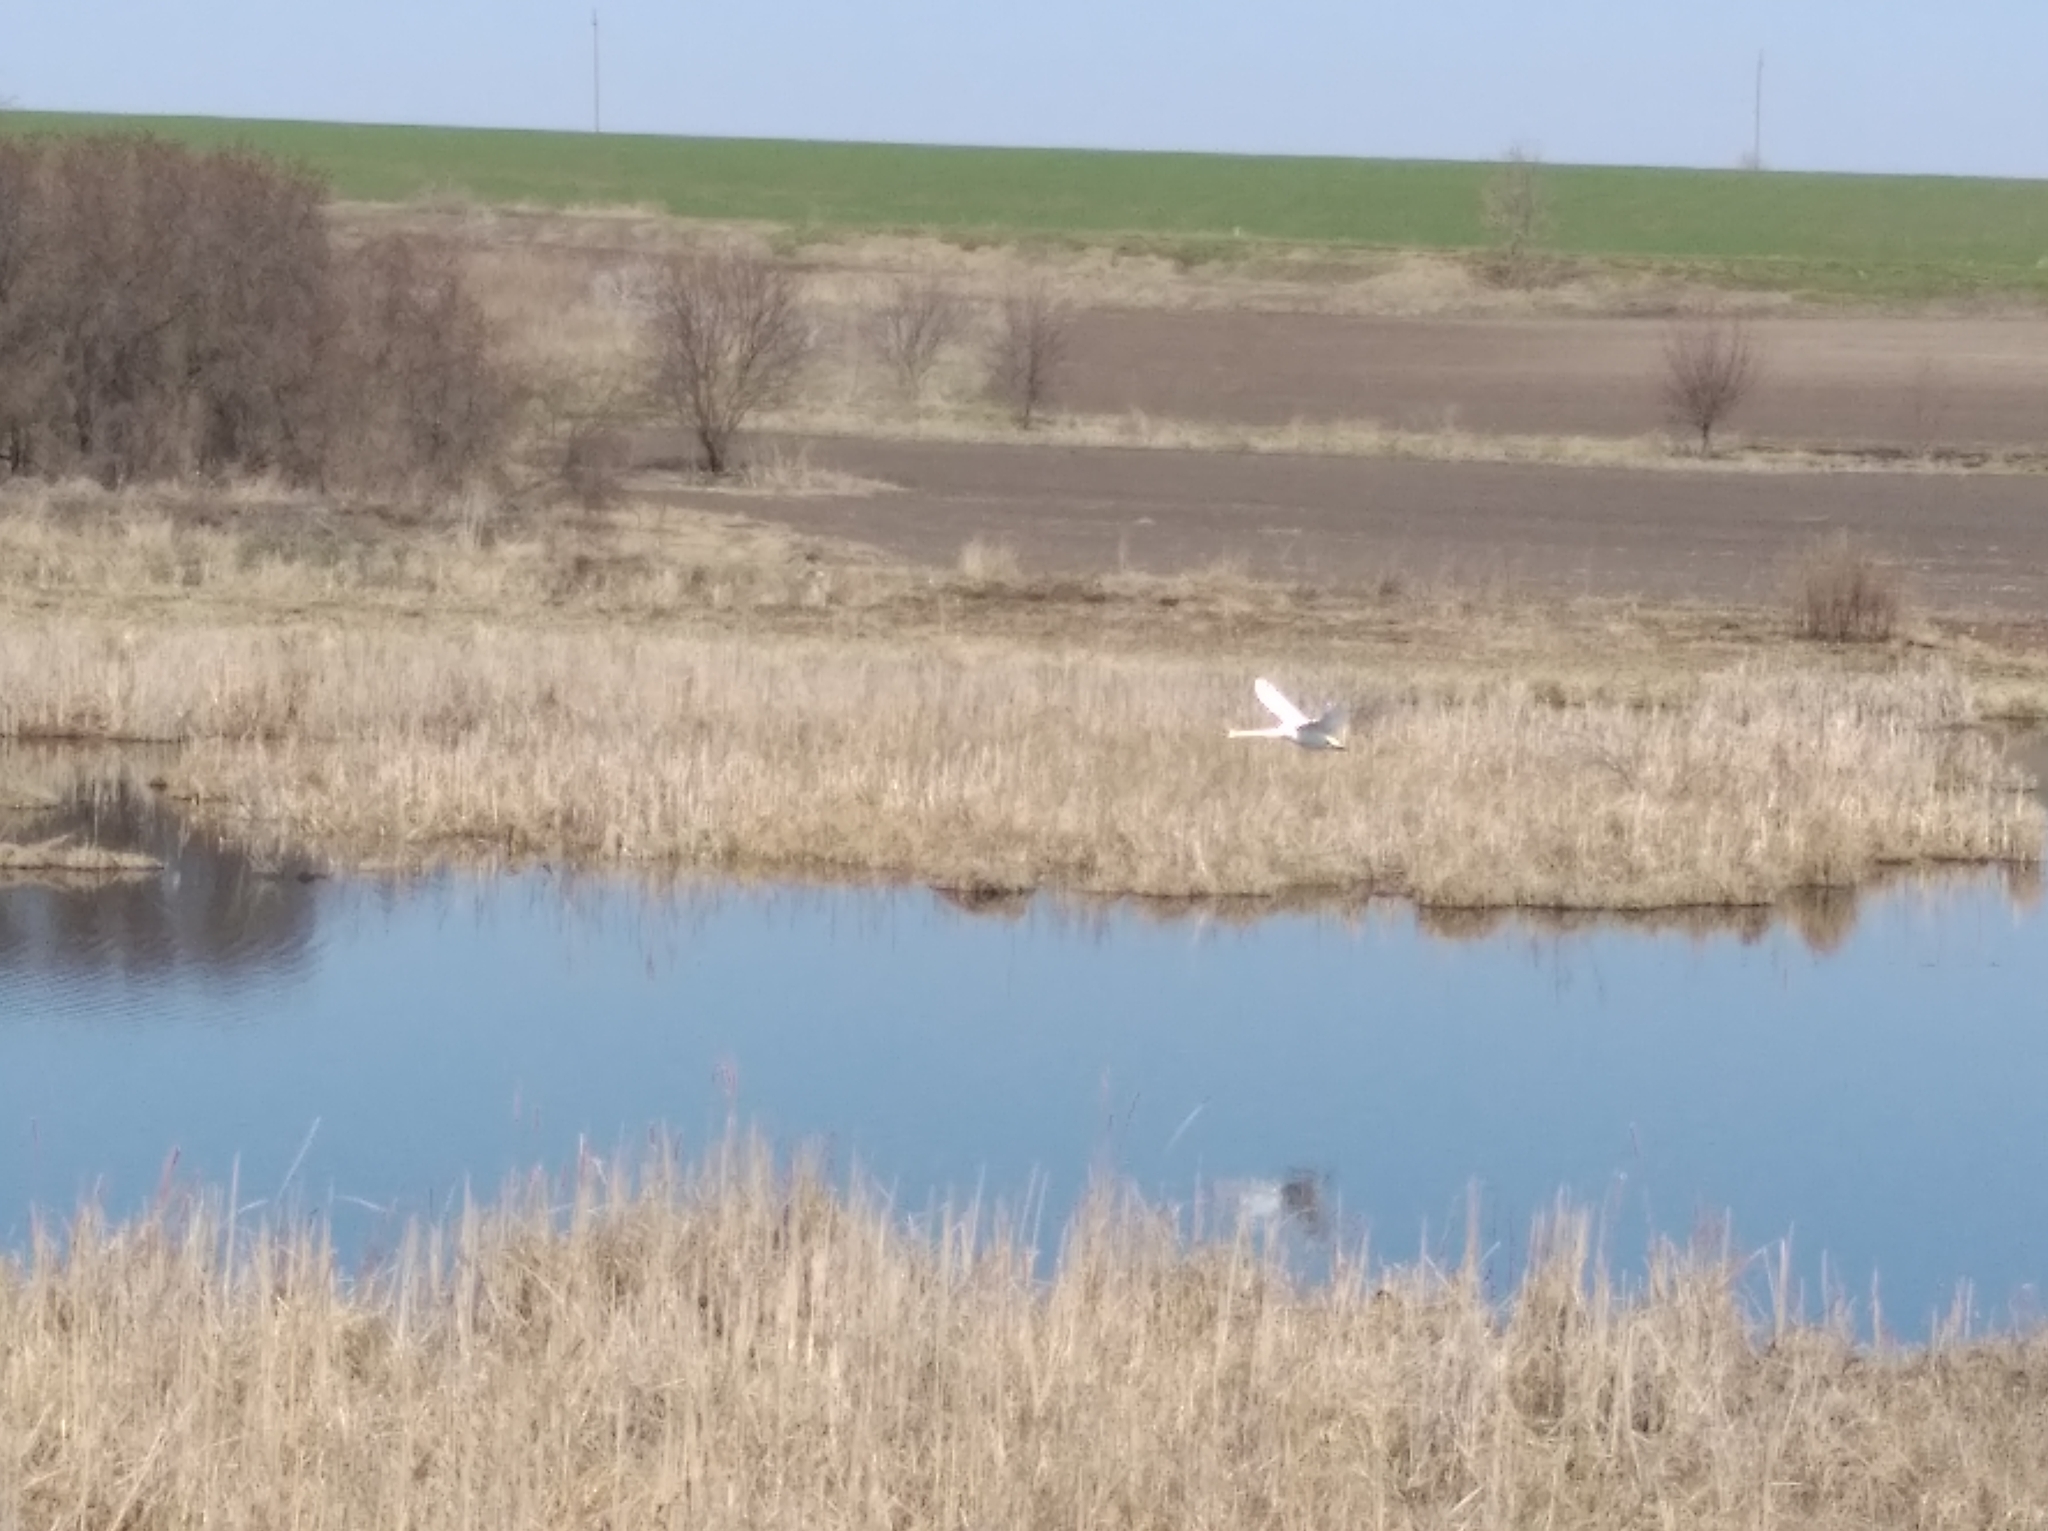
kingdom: Animalia
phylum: Chordata
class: Aves
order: Anseriformes
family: Anatidae
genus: Cygnus
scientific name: Cygnus olor
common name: Mute swan
